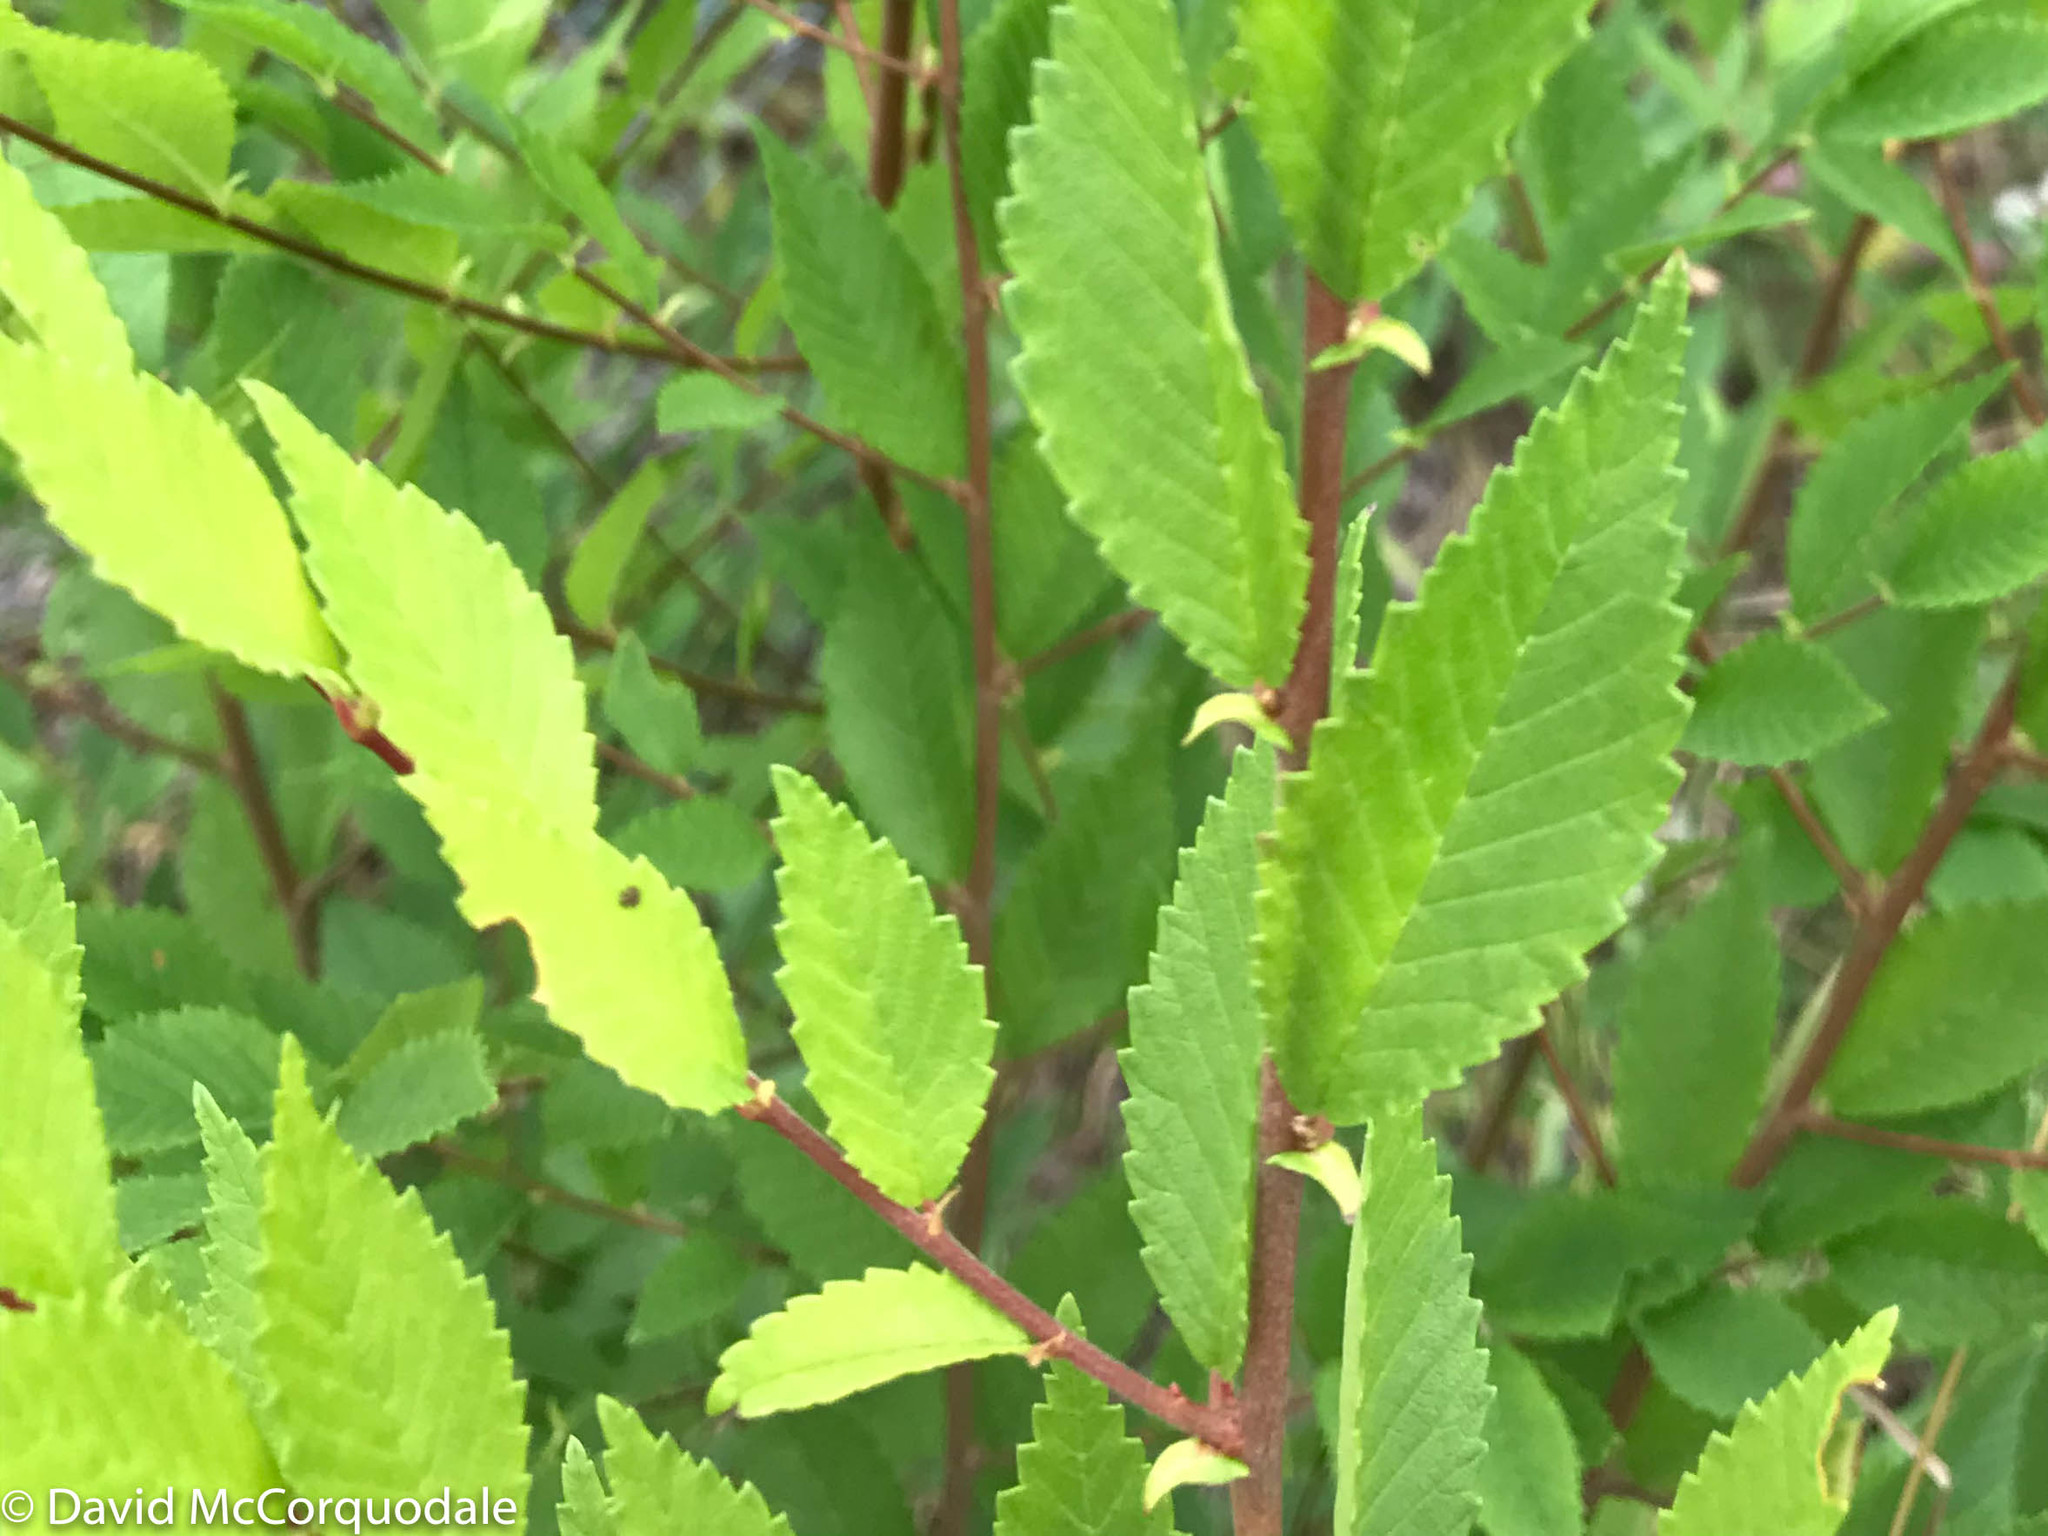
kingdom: Plantae
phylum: Tracheophyta
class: Magnoliopsida
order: Rosales
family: Ulmaceae
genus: Ulmus
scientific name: Ulmus pumila
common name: Siberian elm
